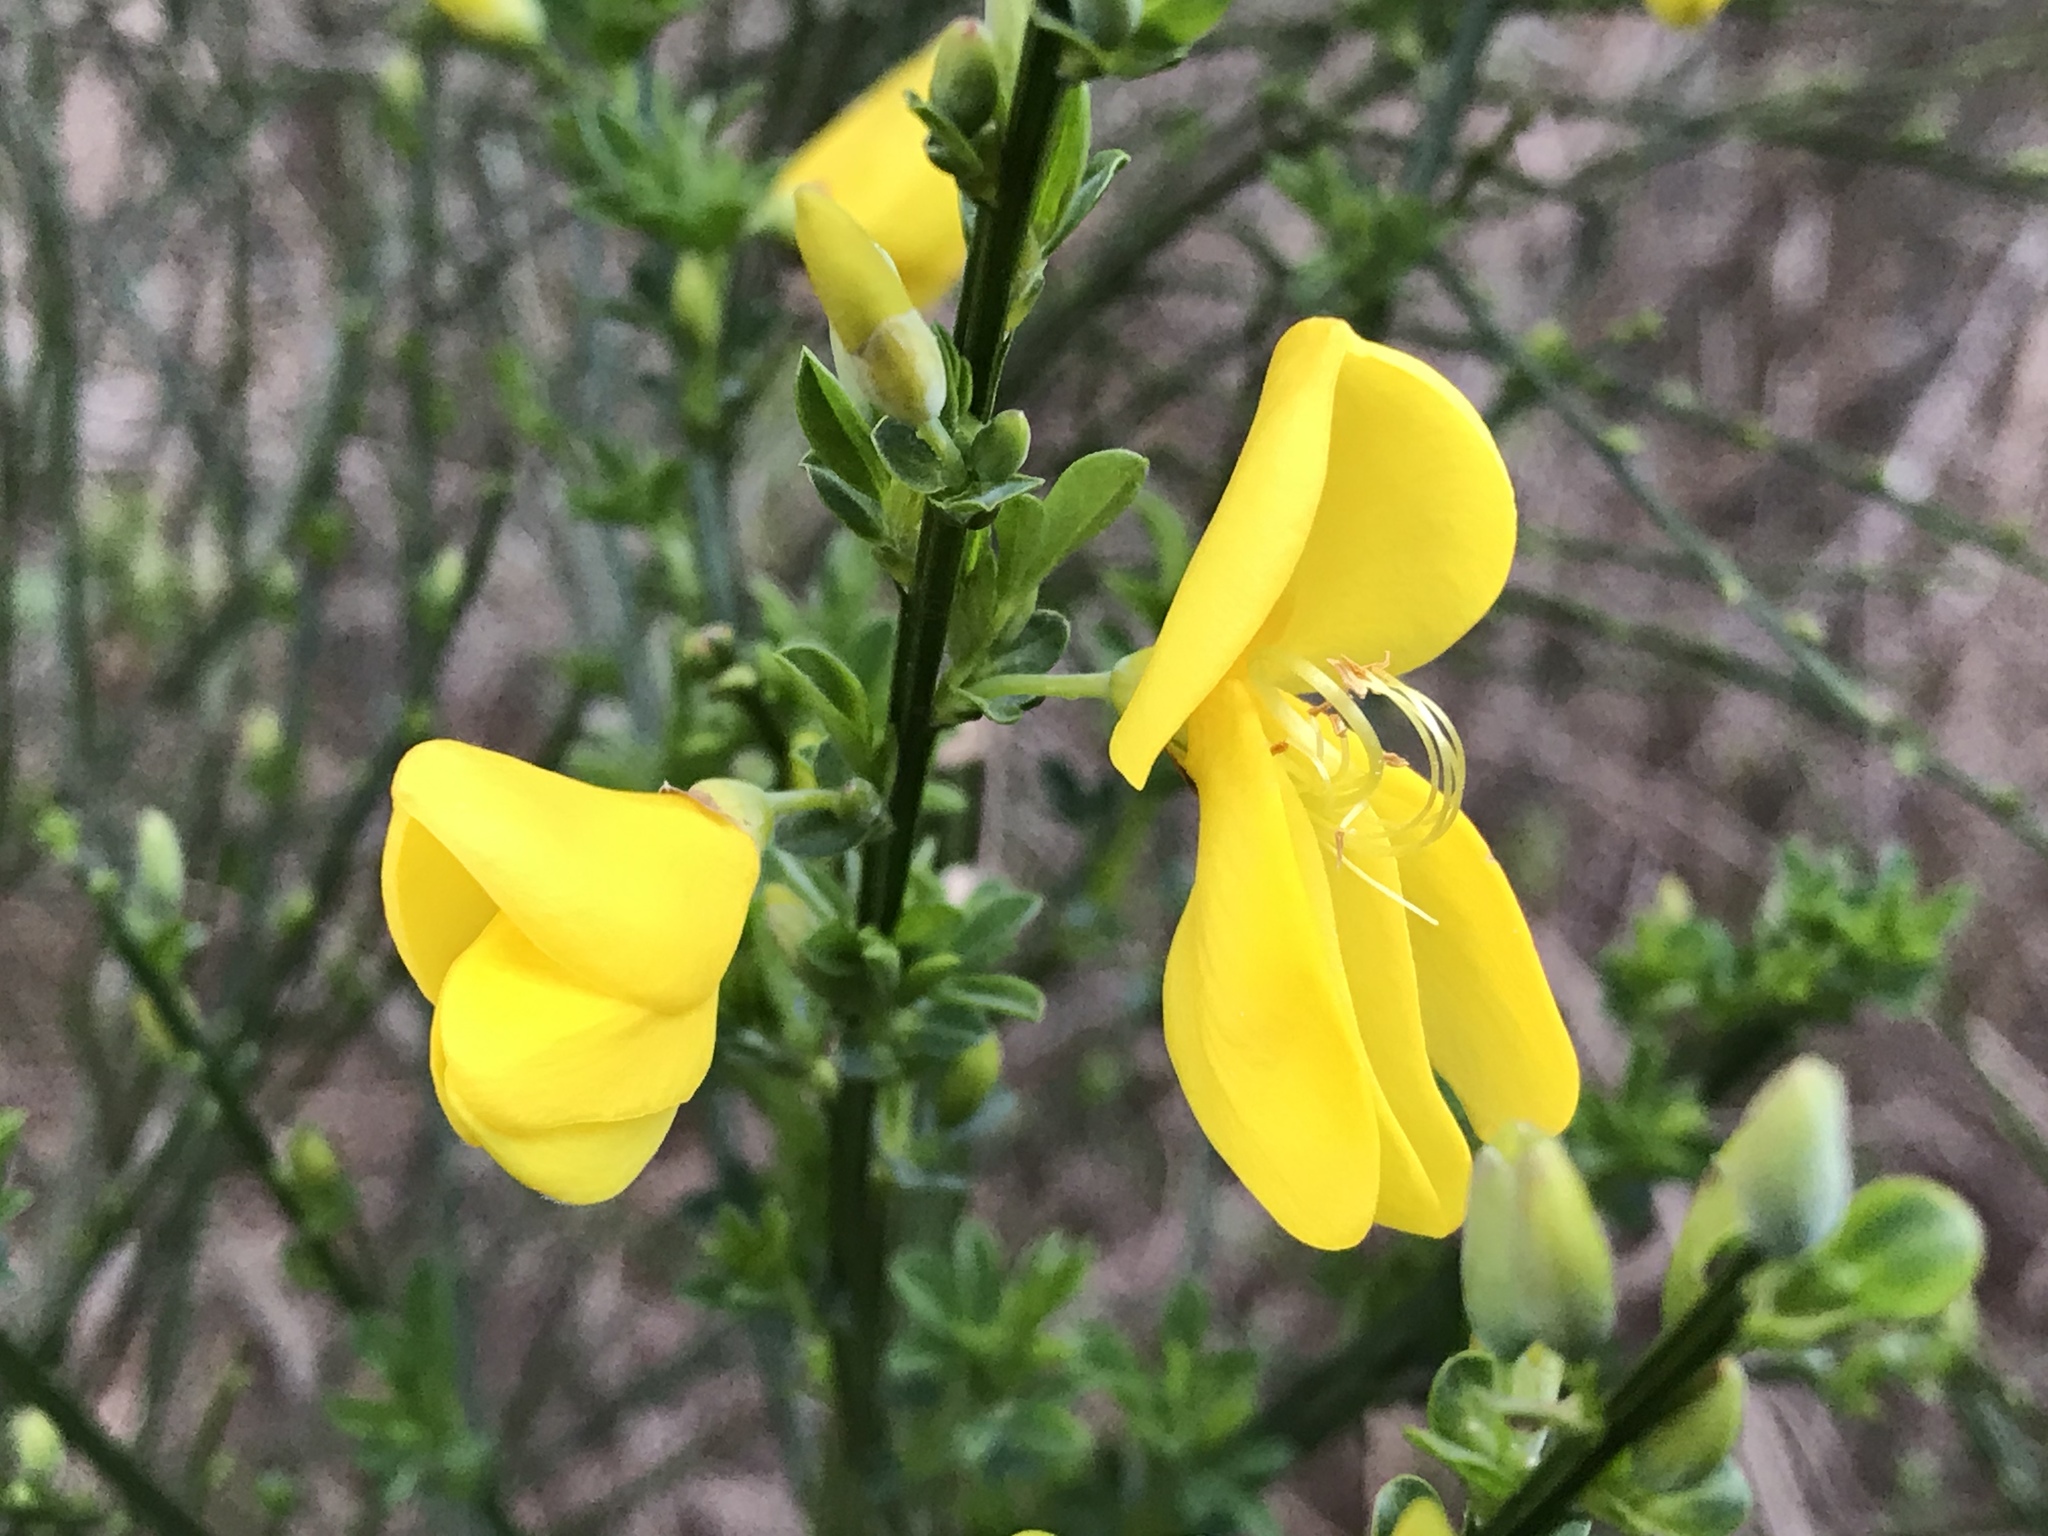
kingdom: Plantae
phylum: Tracheophyta
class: Magnoliopsida
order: Fabales
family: Fabaceae
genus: Cytisus
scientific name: Cytisus scoparius
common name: Scotch broom
